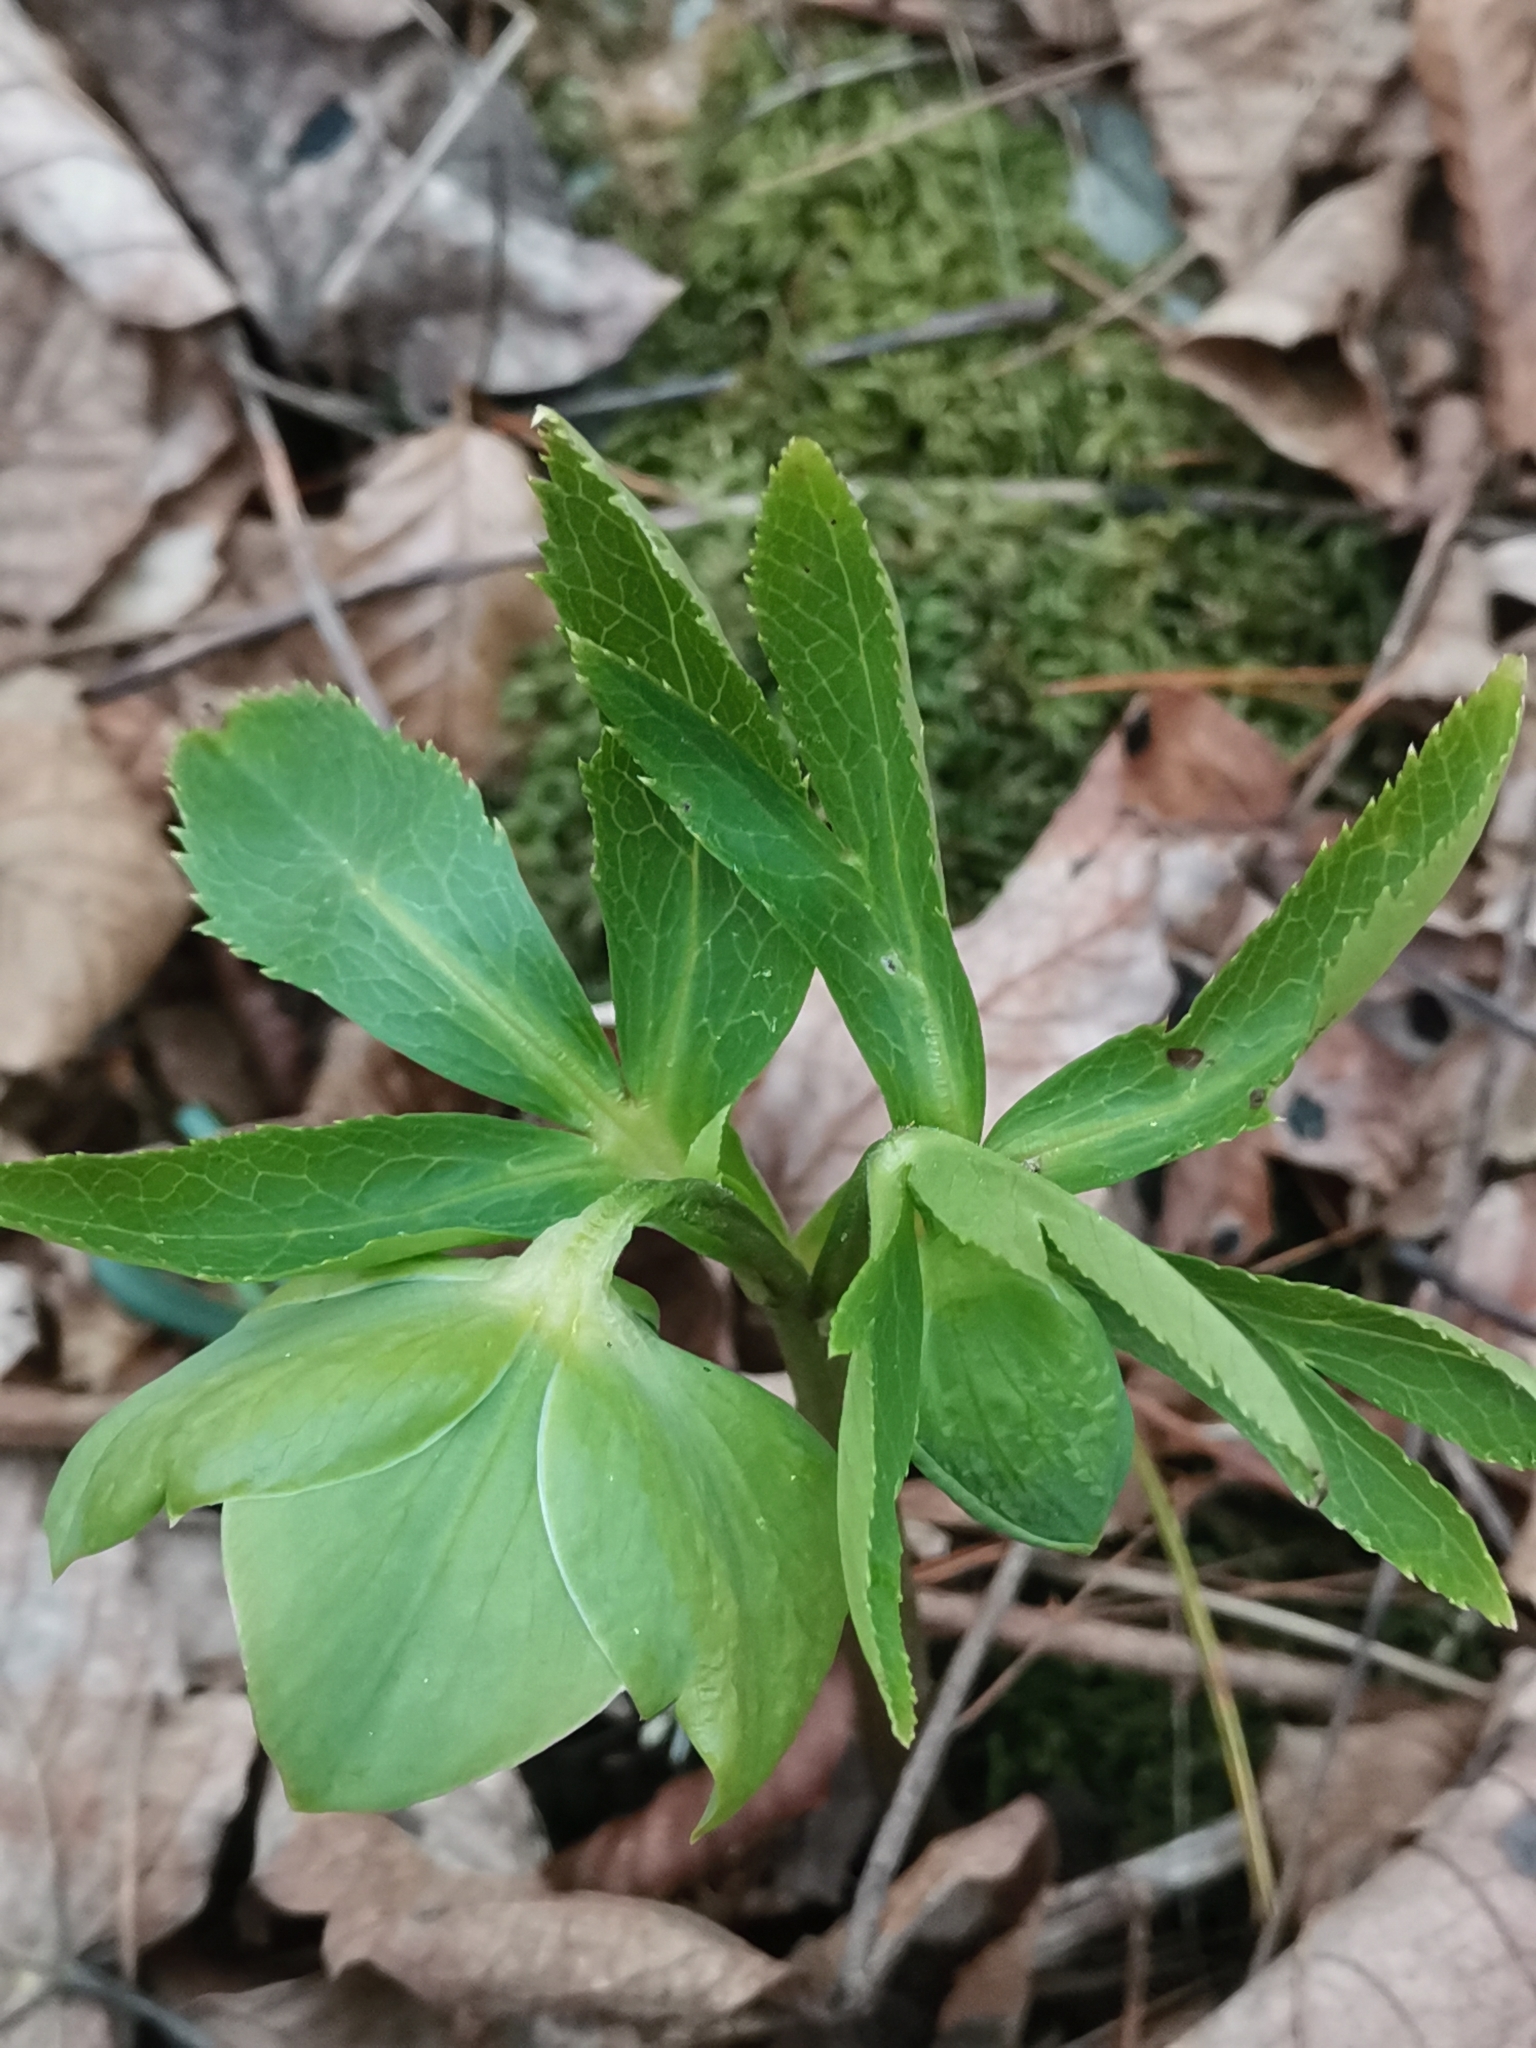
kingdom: Plantae
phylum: Tracheophyta
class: Magnoliopsida
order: Ranunculales
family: Ranunculaceae
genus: Helleborus
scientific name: Helleborus odorus
